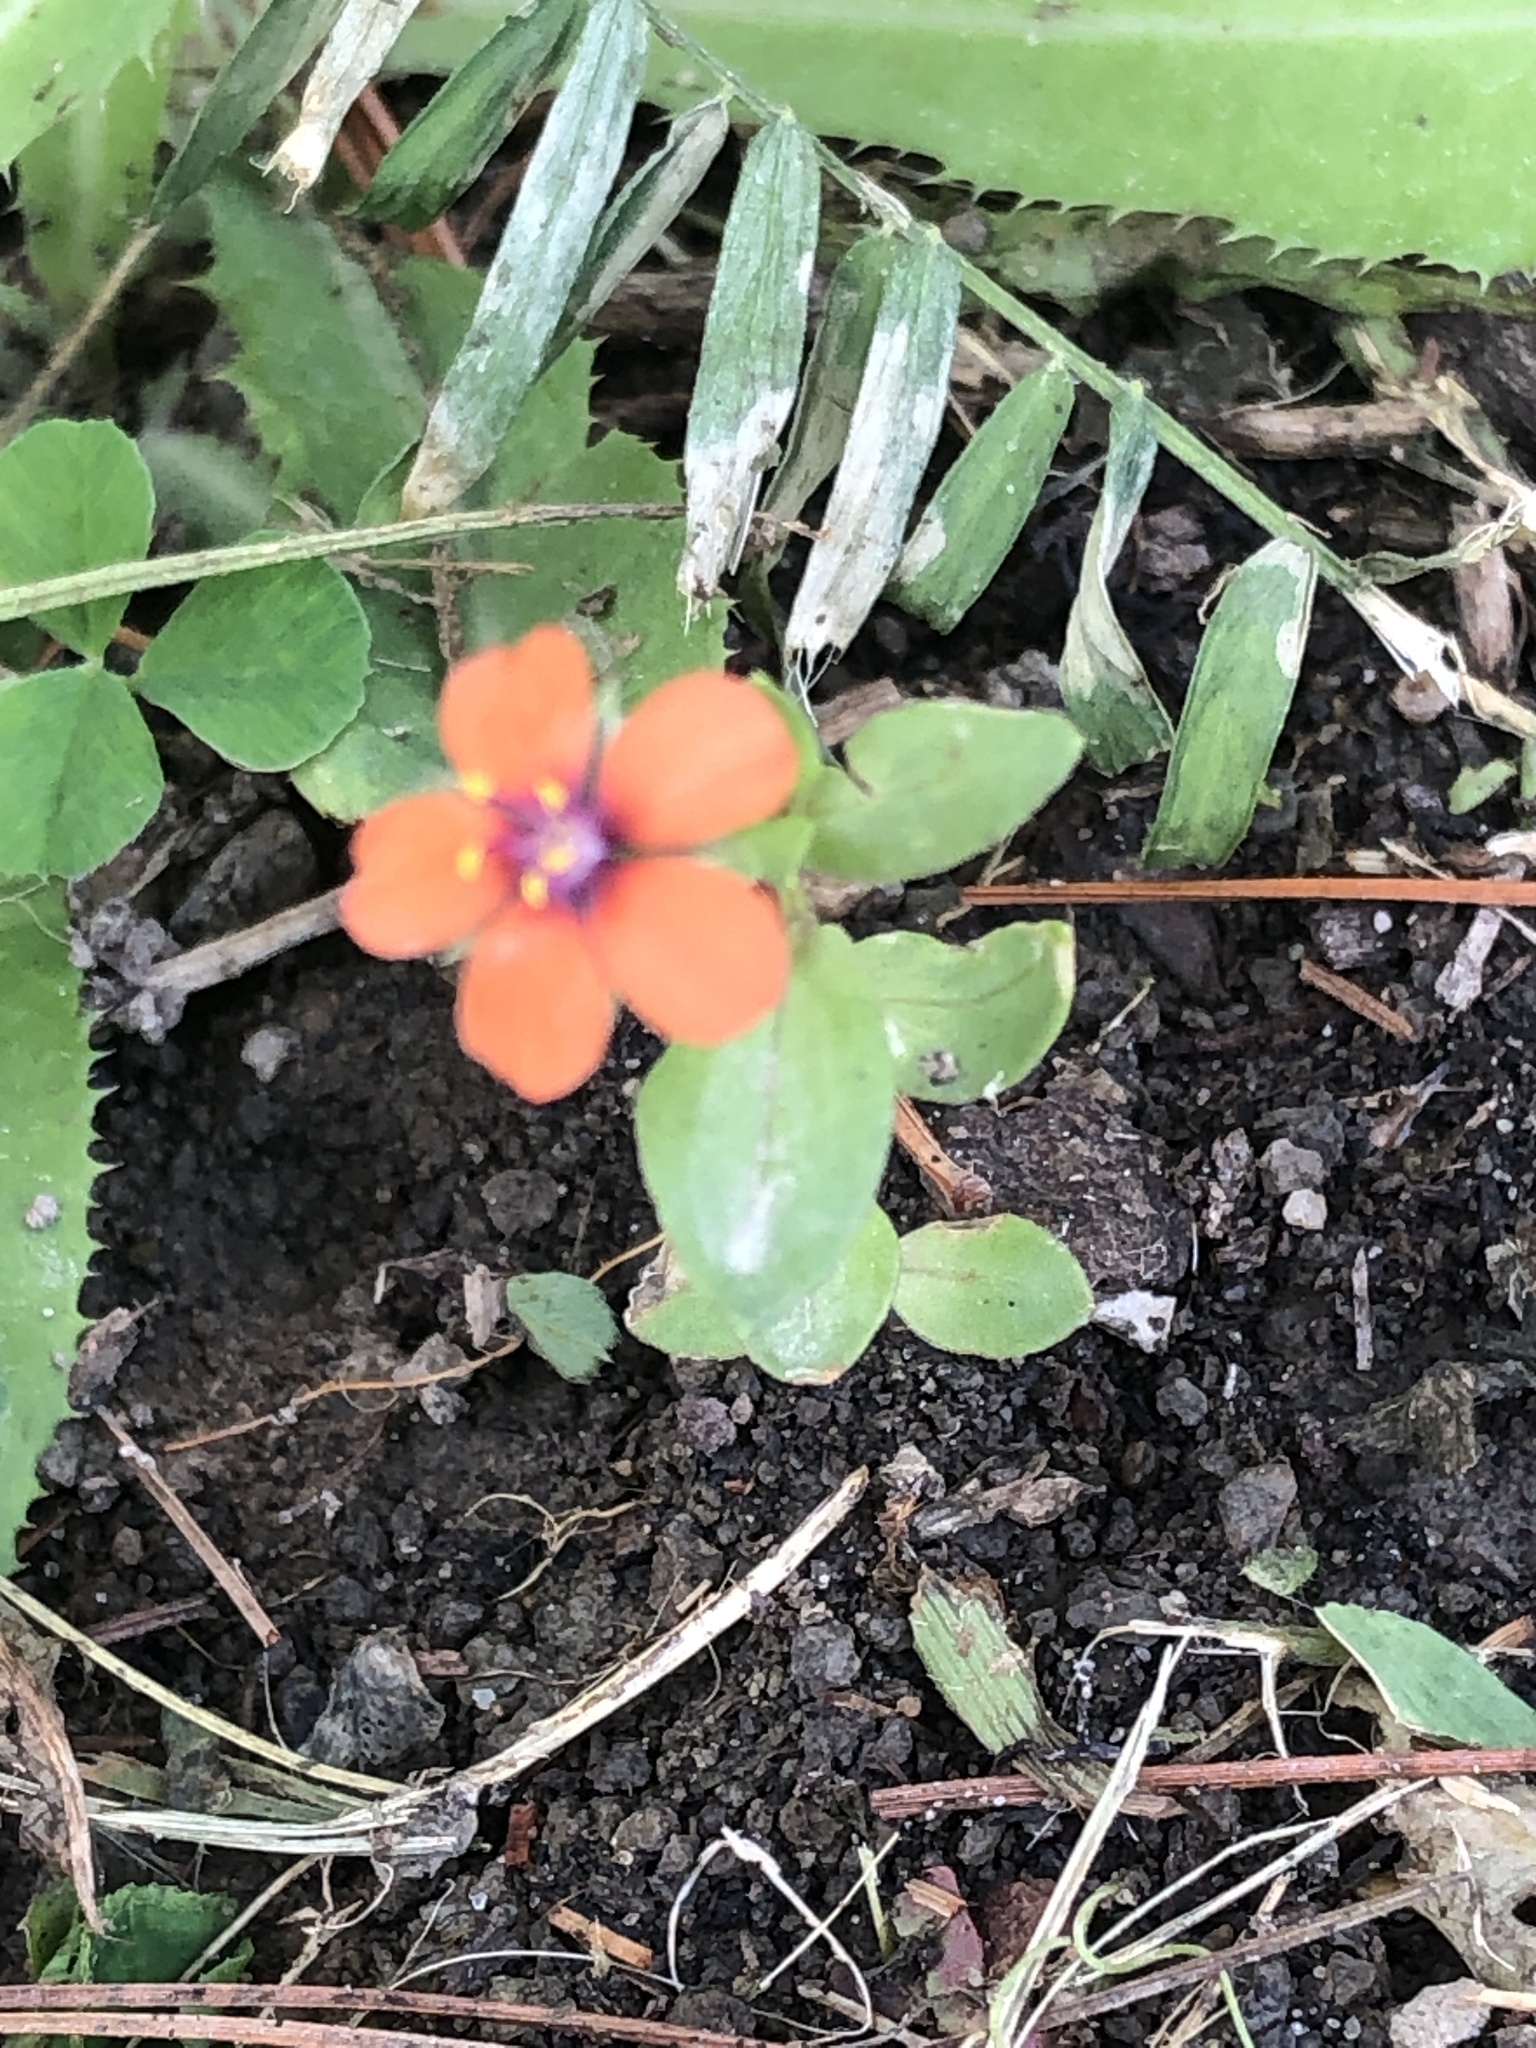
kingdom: Plantae
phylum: Tracheophyta
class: Magnoliopsida
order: Ericales
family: Primulaceae
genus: Lysimachia
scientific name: Lysimachia arvensis
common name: Scarlet pimpernel
